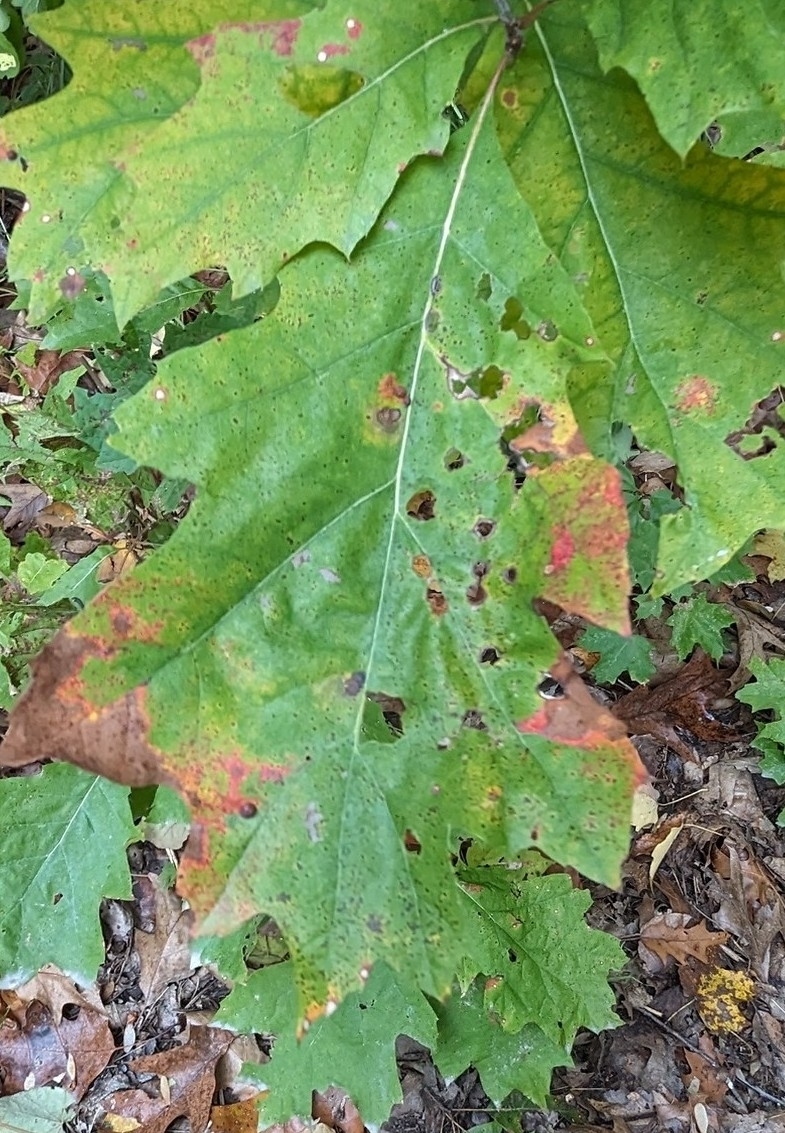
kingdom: Plantae
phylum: Tracheophyta
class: Magnoliopsida
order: Fagales
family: Fagaceae
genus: Quercus
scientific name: Quercus rubra
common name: Red oak
